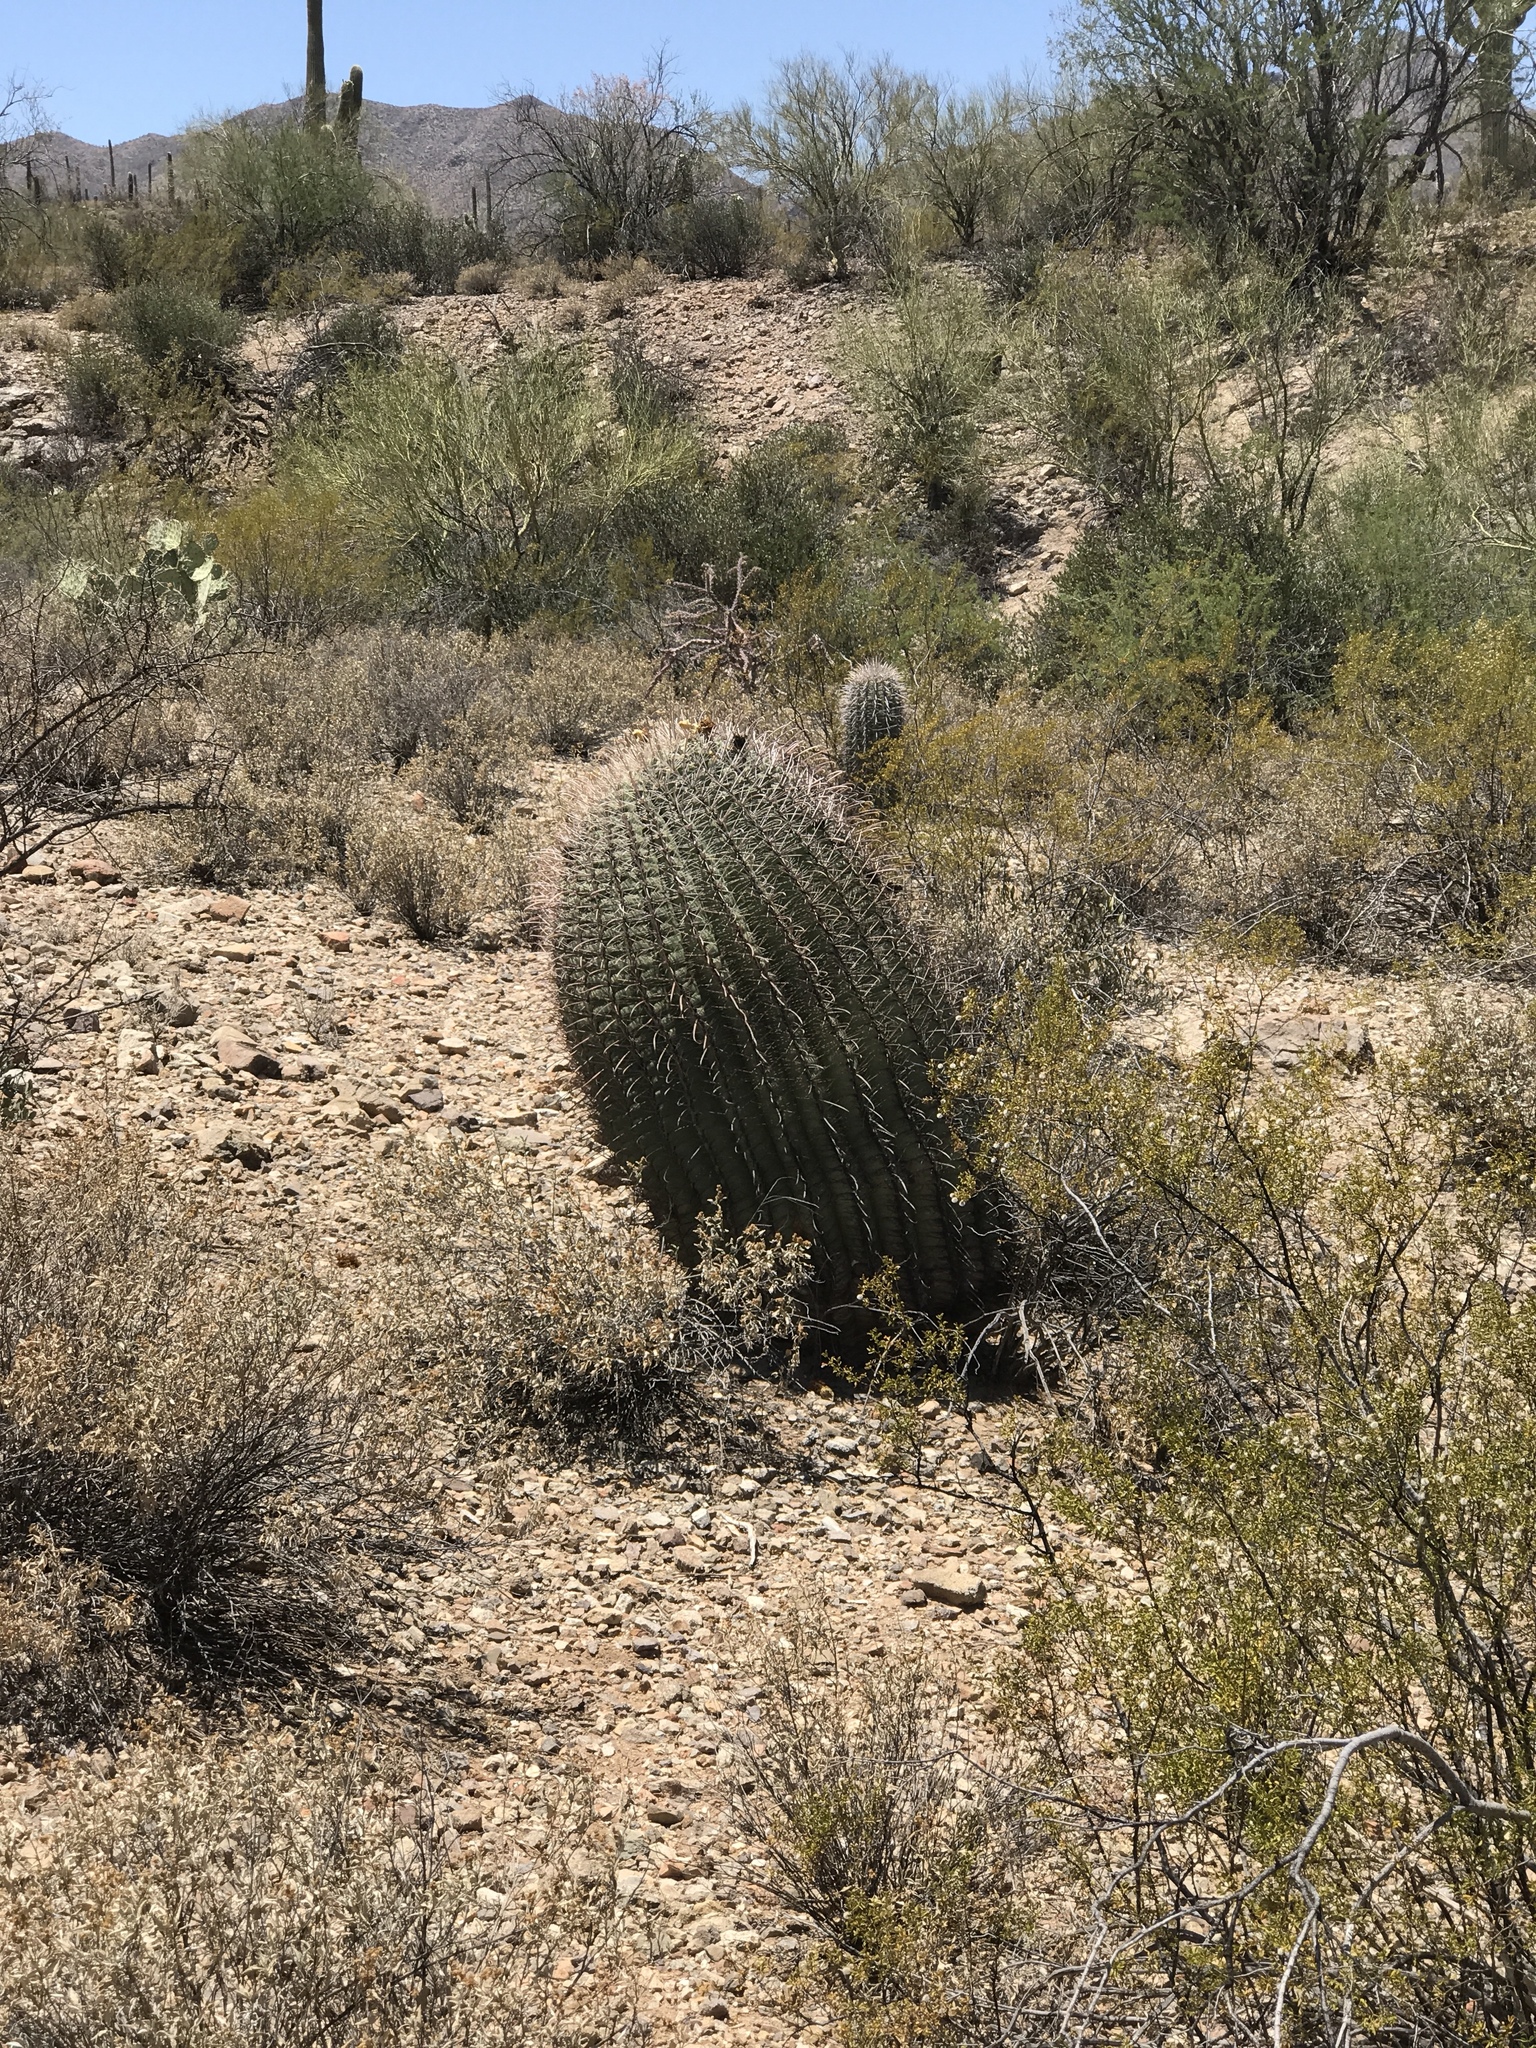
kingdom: Plantae
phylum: Tracheophyta
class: Magnoliopsida
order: Caryophyllales
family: Cactaceae
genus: Ferocactus
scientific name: Ferocactus wislizeni
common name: Candy barrel cactus
